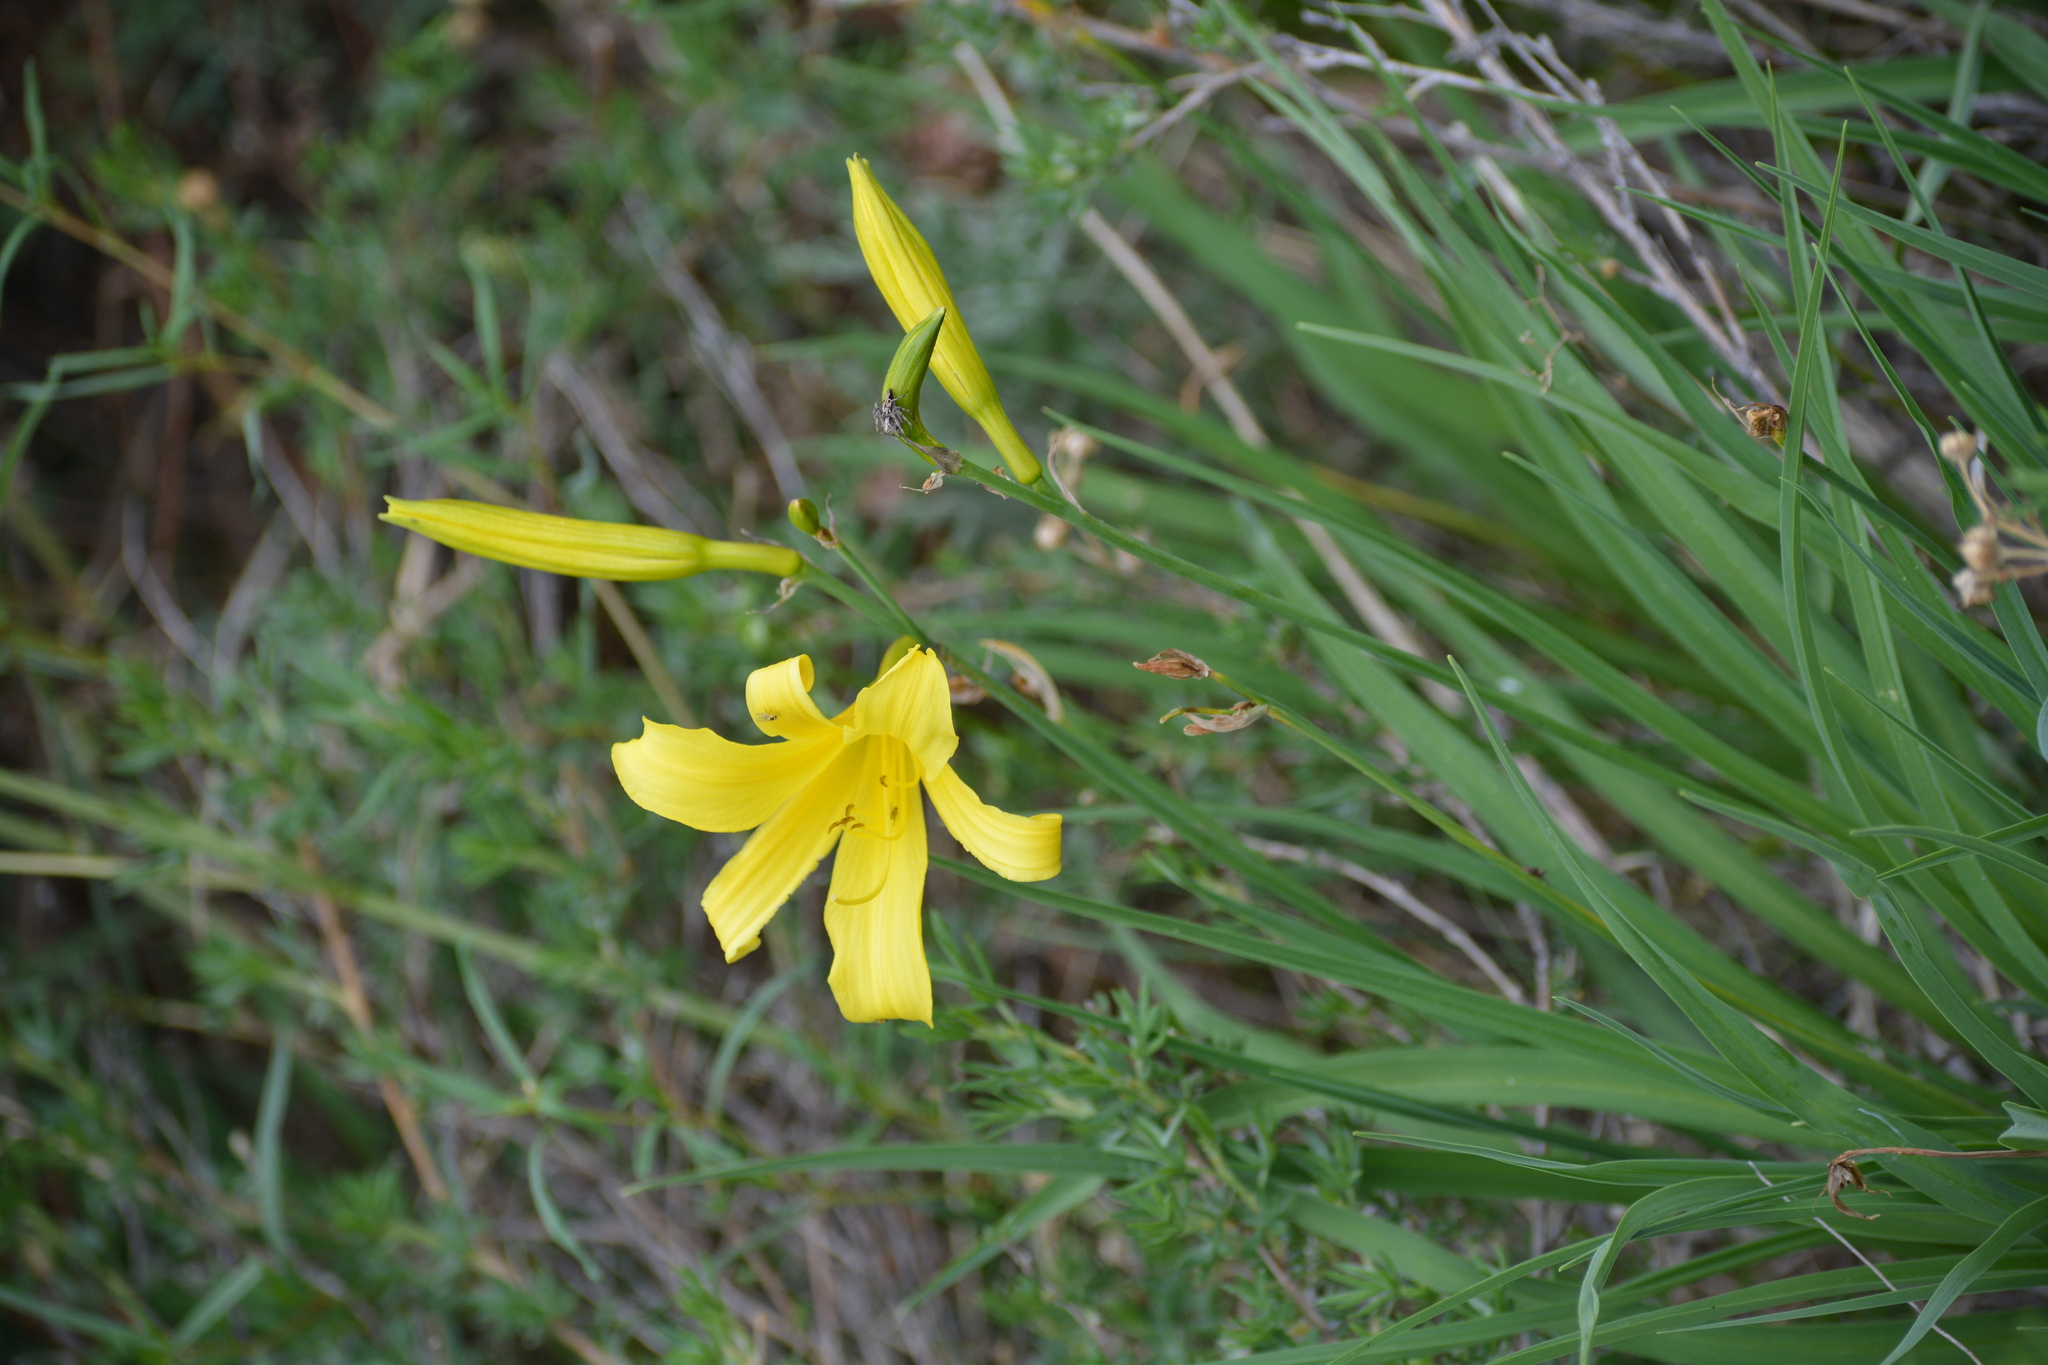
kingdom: Plantae
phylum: Tracheophyta
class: Liliopsida
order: Asparagales
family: Asphodelaceae
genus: Hemerocallis
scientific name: Hemerocallis minor
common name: Small daylily
